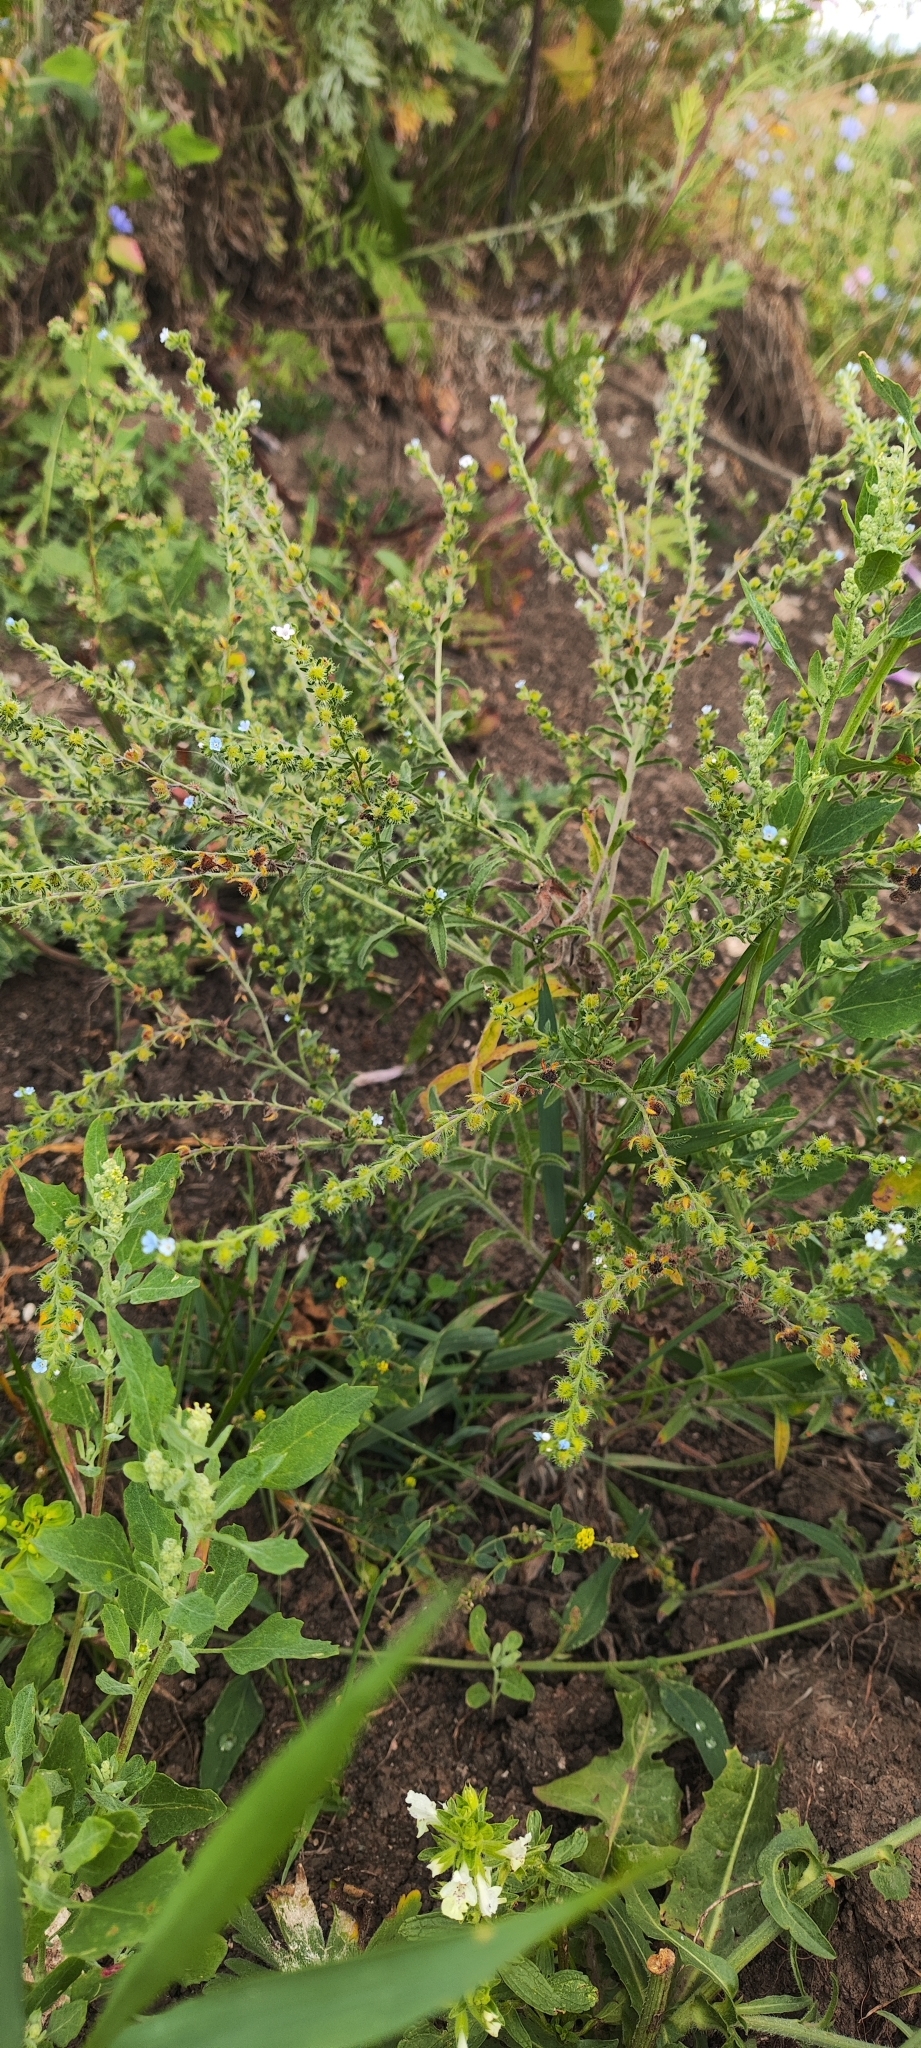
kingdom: Plantae
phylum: Tracheophyta
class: Magnoliopsida
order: Boraginales
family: Boraginaceae
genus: Lappula
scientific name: Lappula squarrosa
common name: European stickseed
